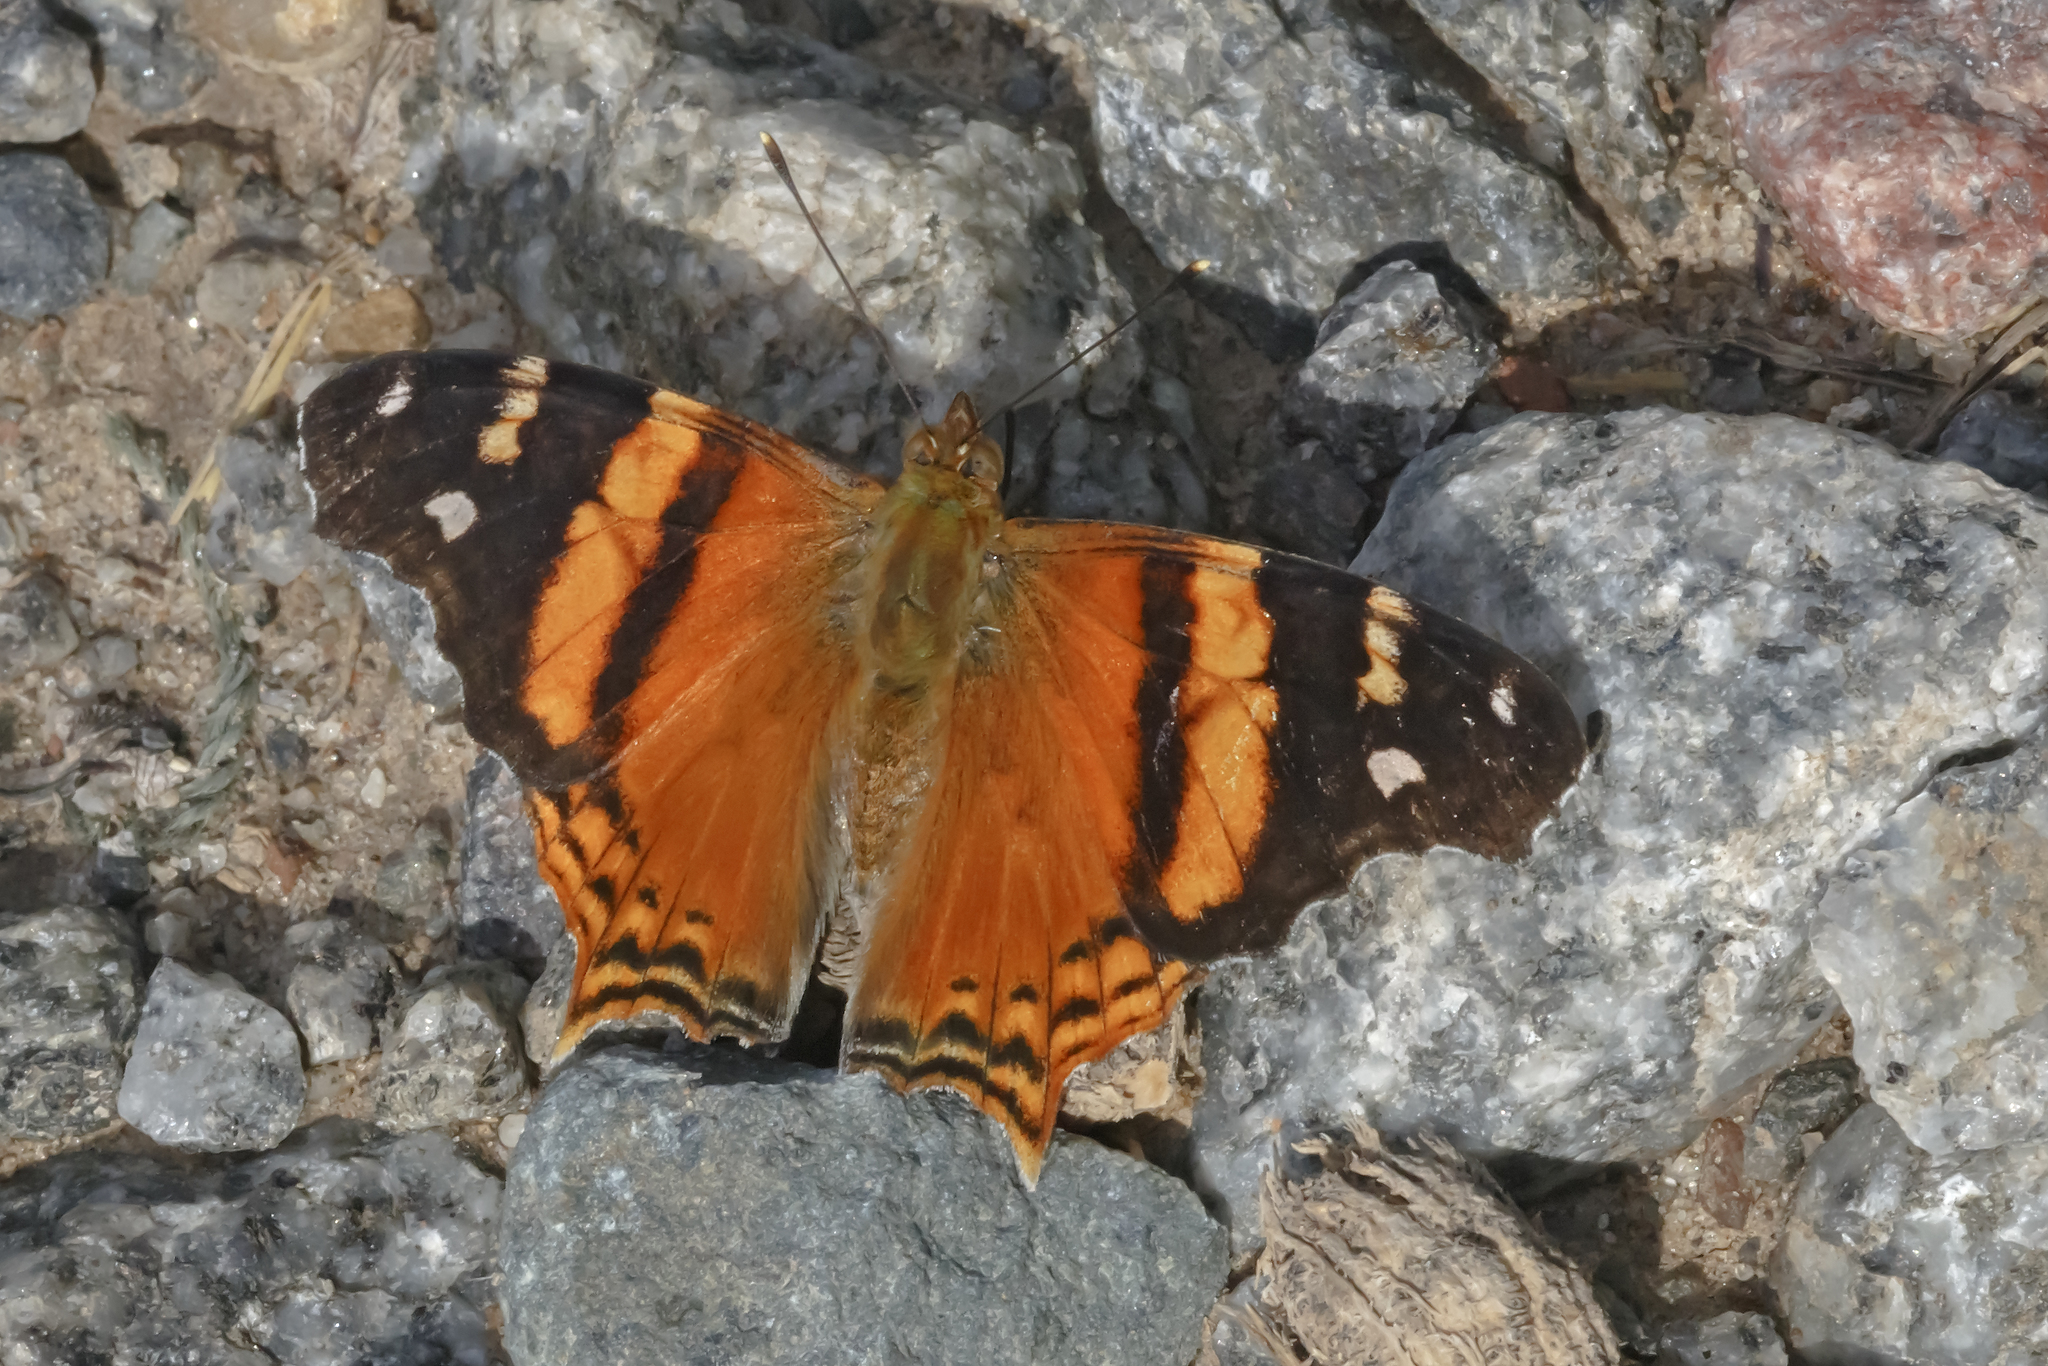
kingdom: Animalia
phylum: Arthropoda
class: Insecta
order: Lepidoptera
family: Nymphalidae
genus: Hypanartia
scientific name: Hypanartia bella
